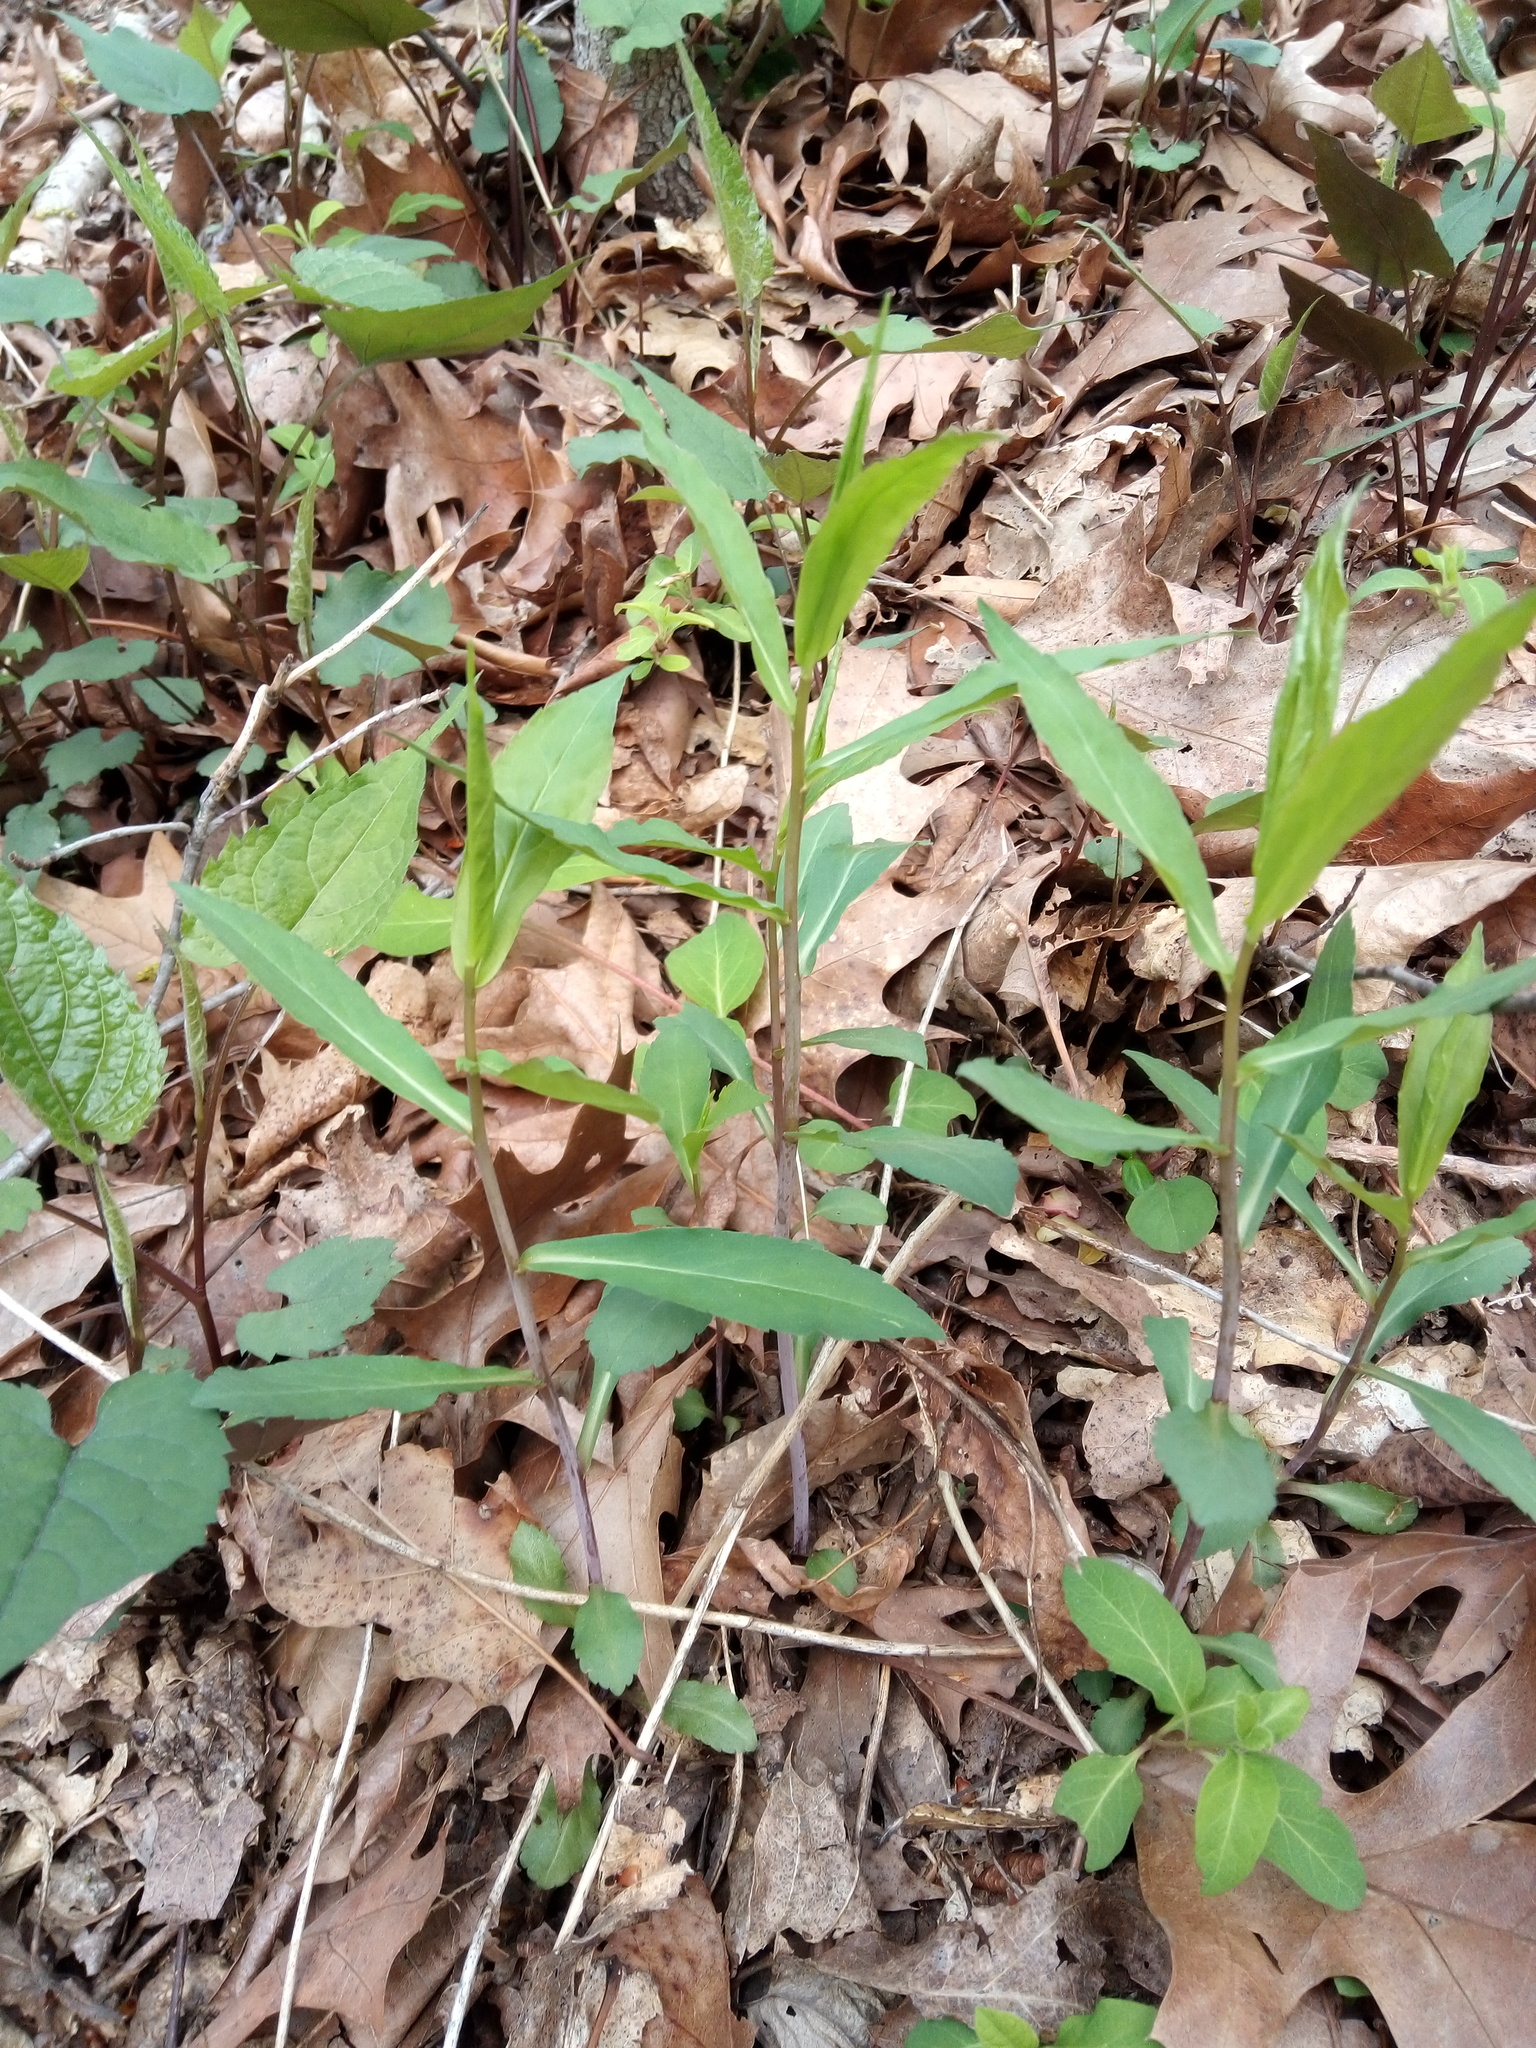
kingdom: Plantae
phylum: Tracheophyta
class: Magnoliopsida
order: Asterales
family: Asteraceae
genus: Solidago
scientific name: Solidago caesia
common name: Woodland goldenrod
